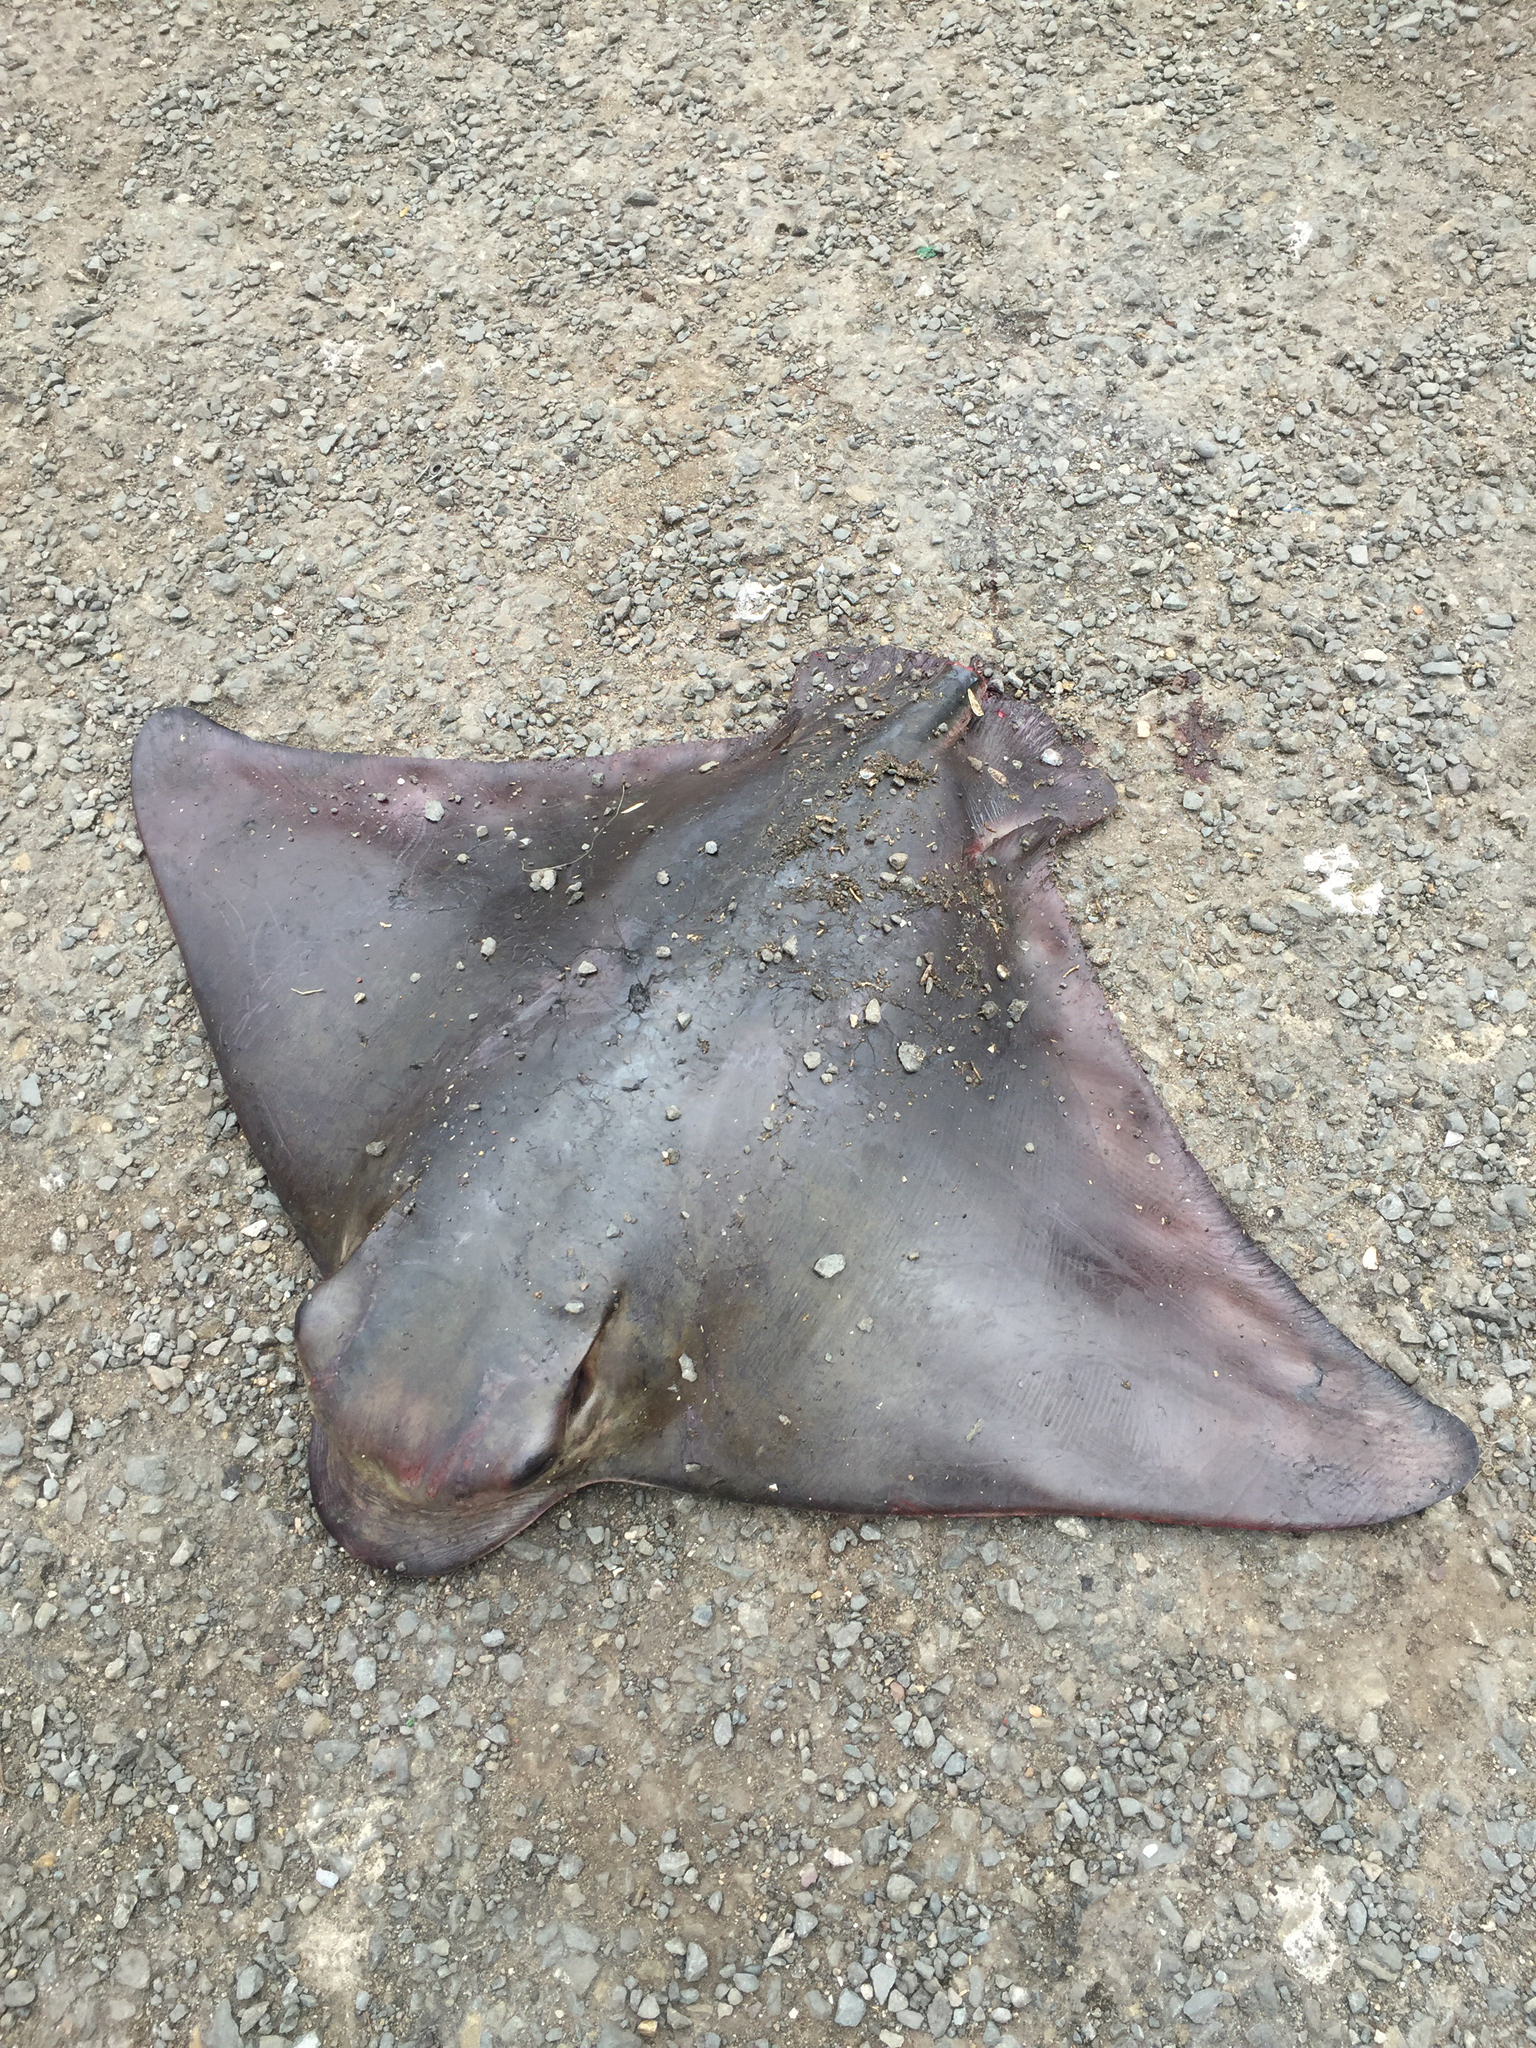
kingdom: Animalia
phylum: Chordata
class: Elasmobranchii
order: Myliobatiformes
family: Myliobatidae
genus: Myliobatis
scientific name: Myliobatis californica
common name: Bat ray
